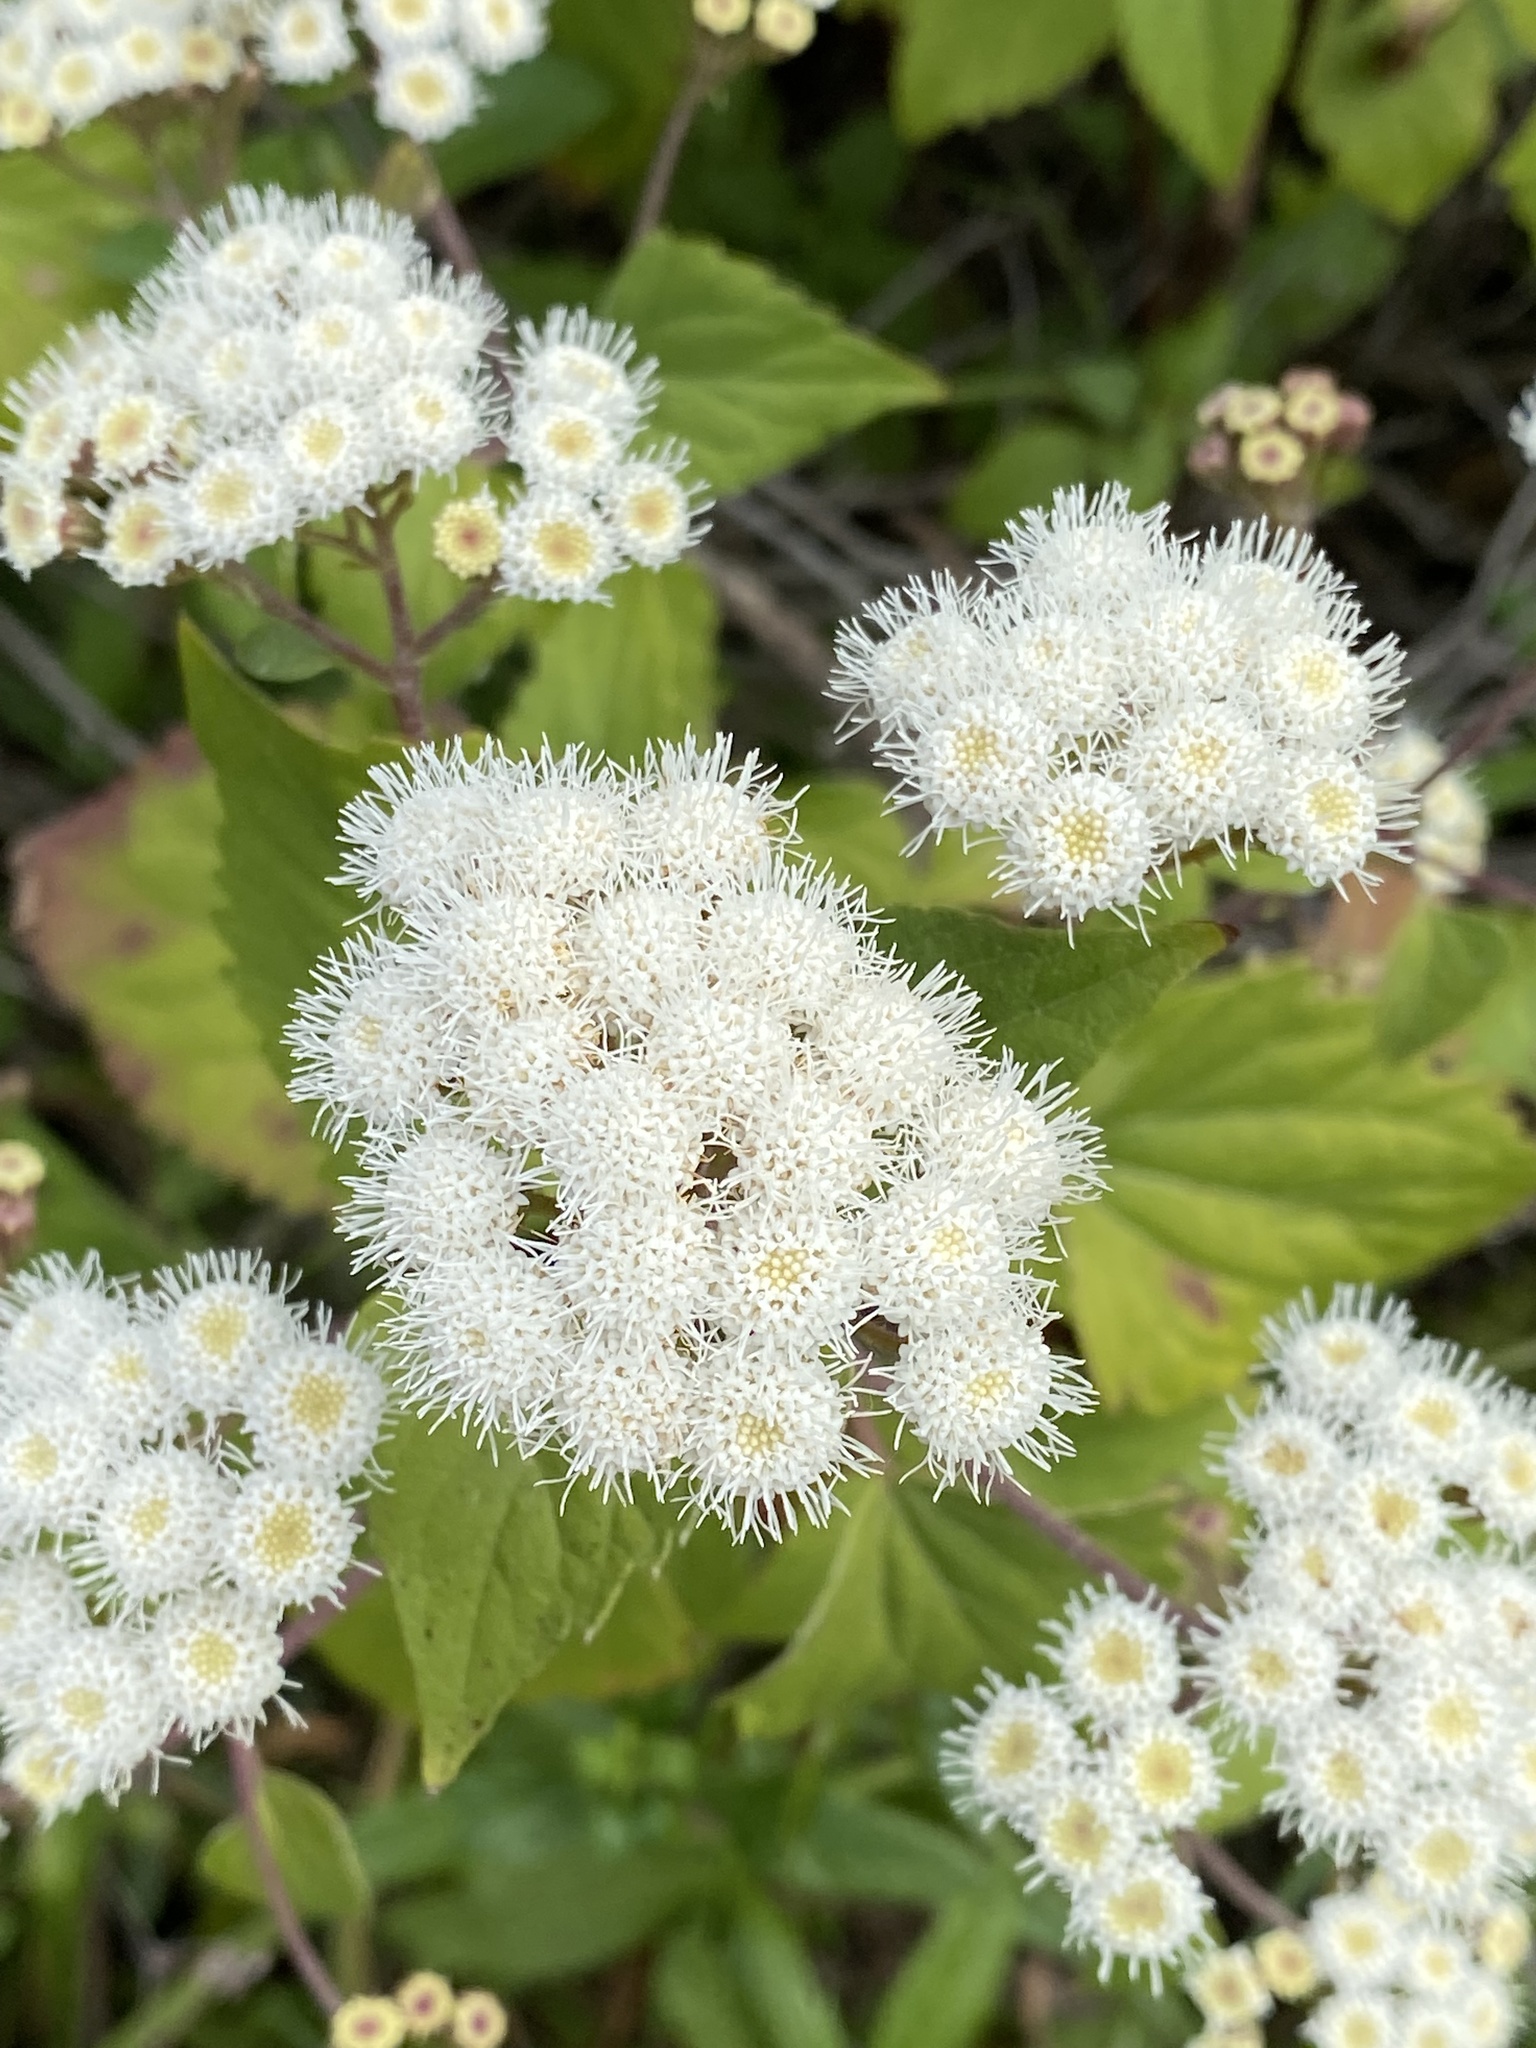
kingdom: Plantae
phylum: Tracheophyta
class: Magnoliopsida
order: Asterales
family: Asteraceae
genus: Ageratina
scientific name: Ageratina adenophora
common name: Sticky snakeroot
